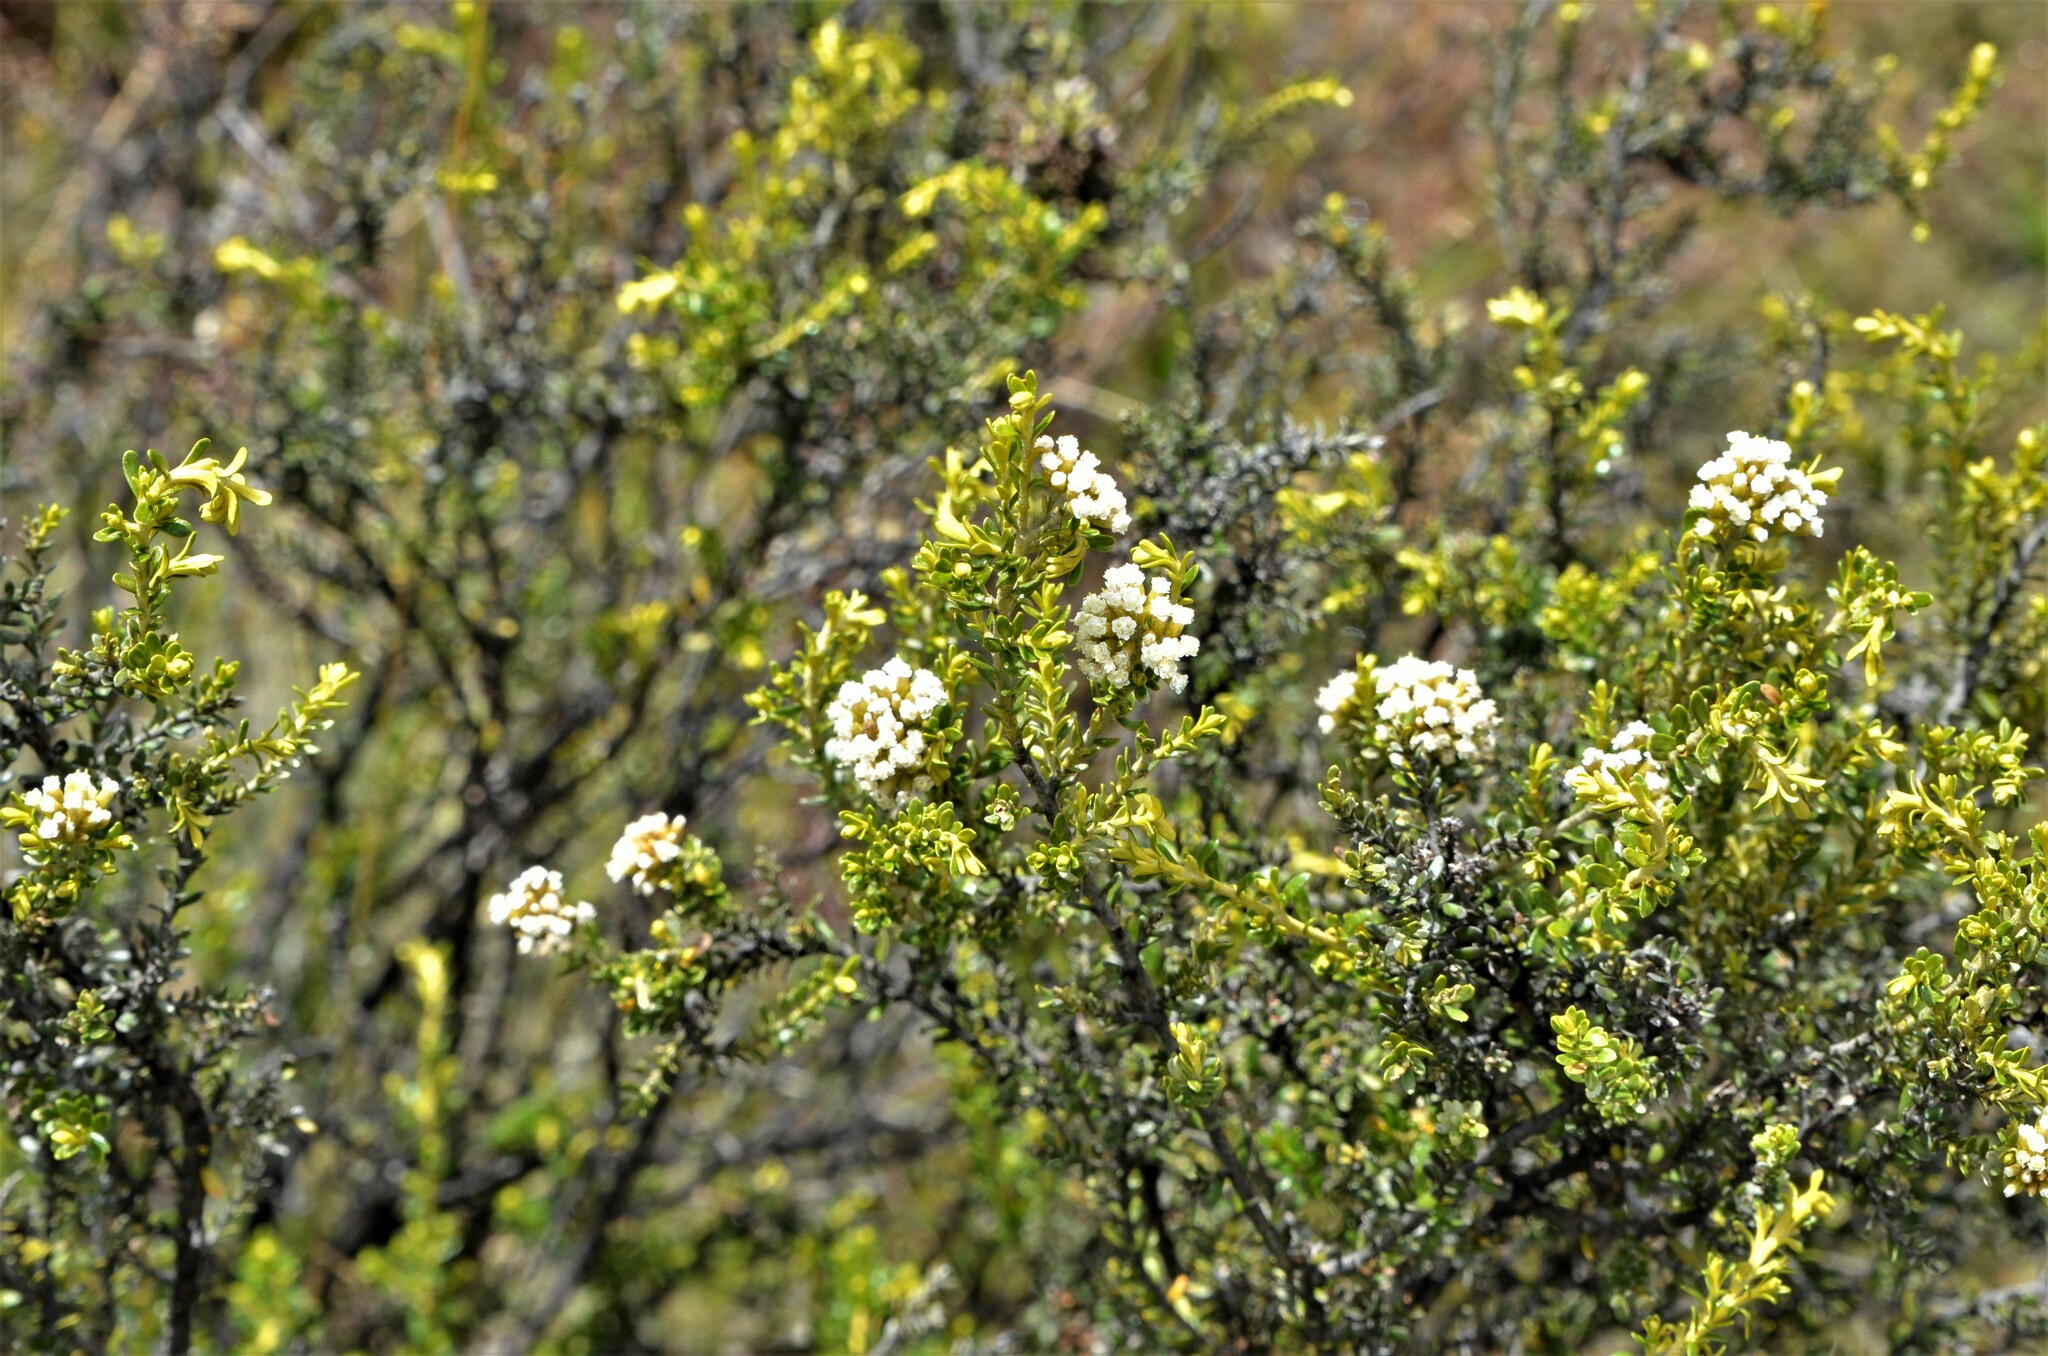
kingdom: Plantae
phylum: Tracheophyta
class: Magnoliopsida
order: Asterales
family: Asteraceae
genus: Ozothamnus
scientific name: Ozothamnus leptophyllus
